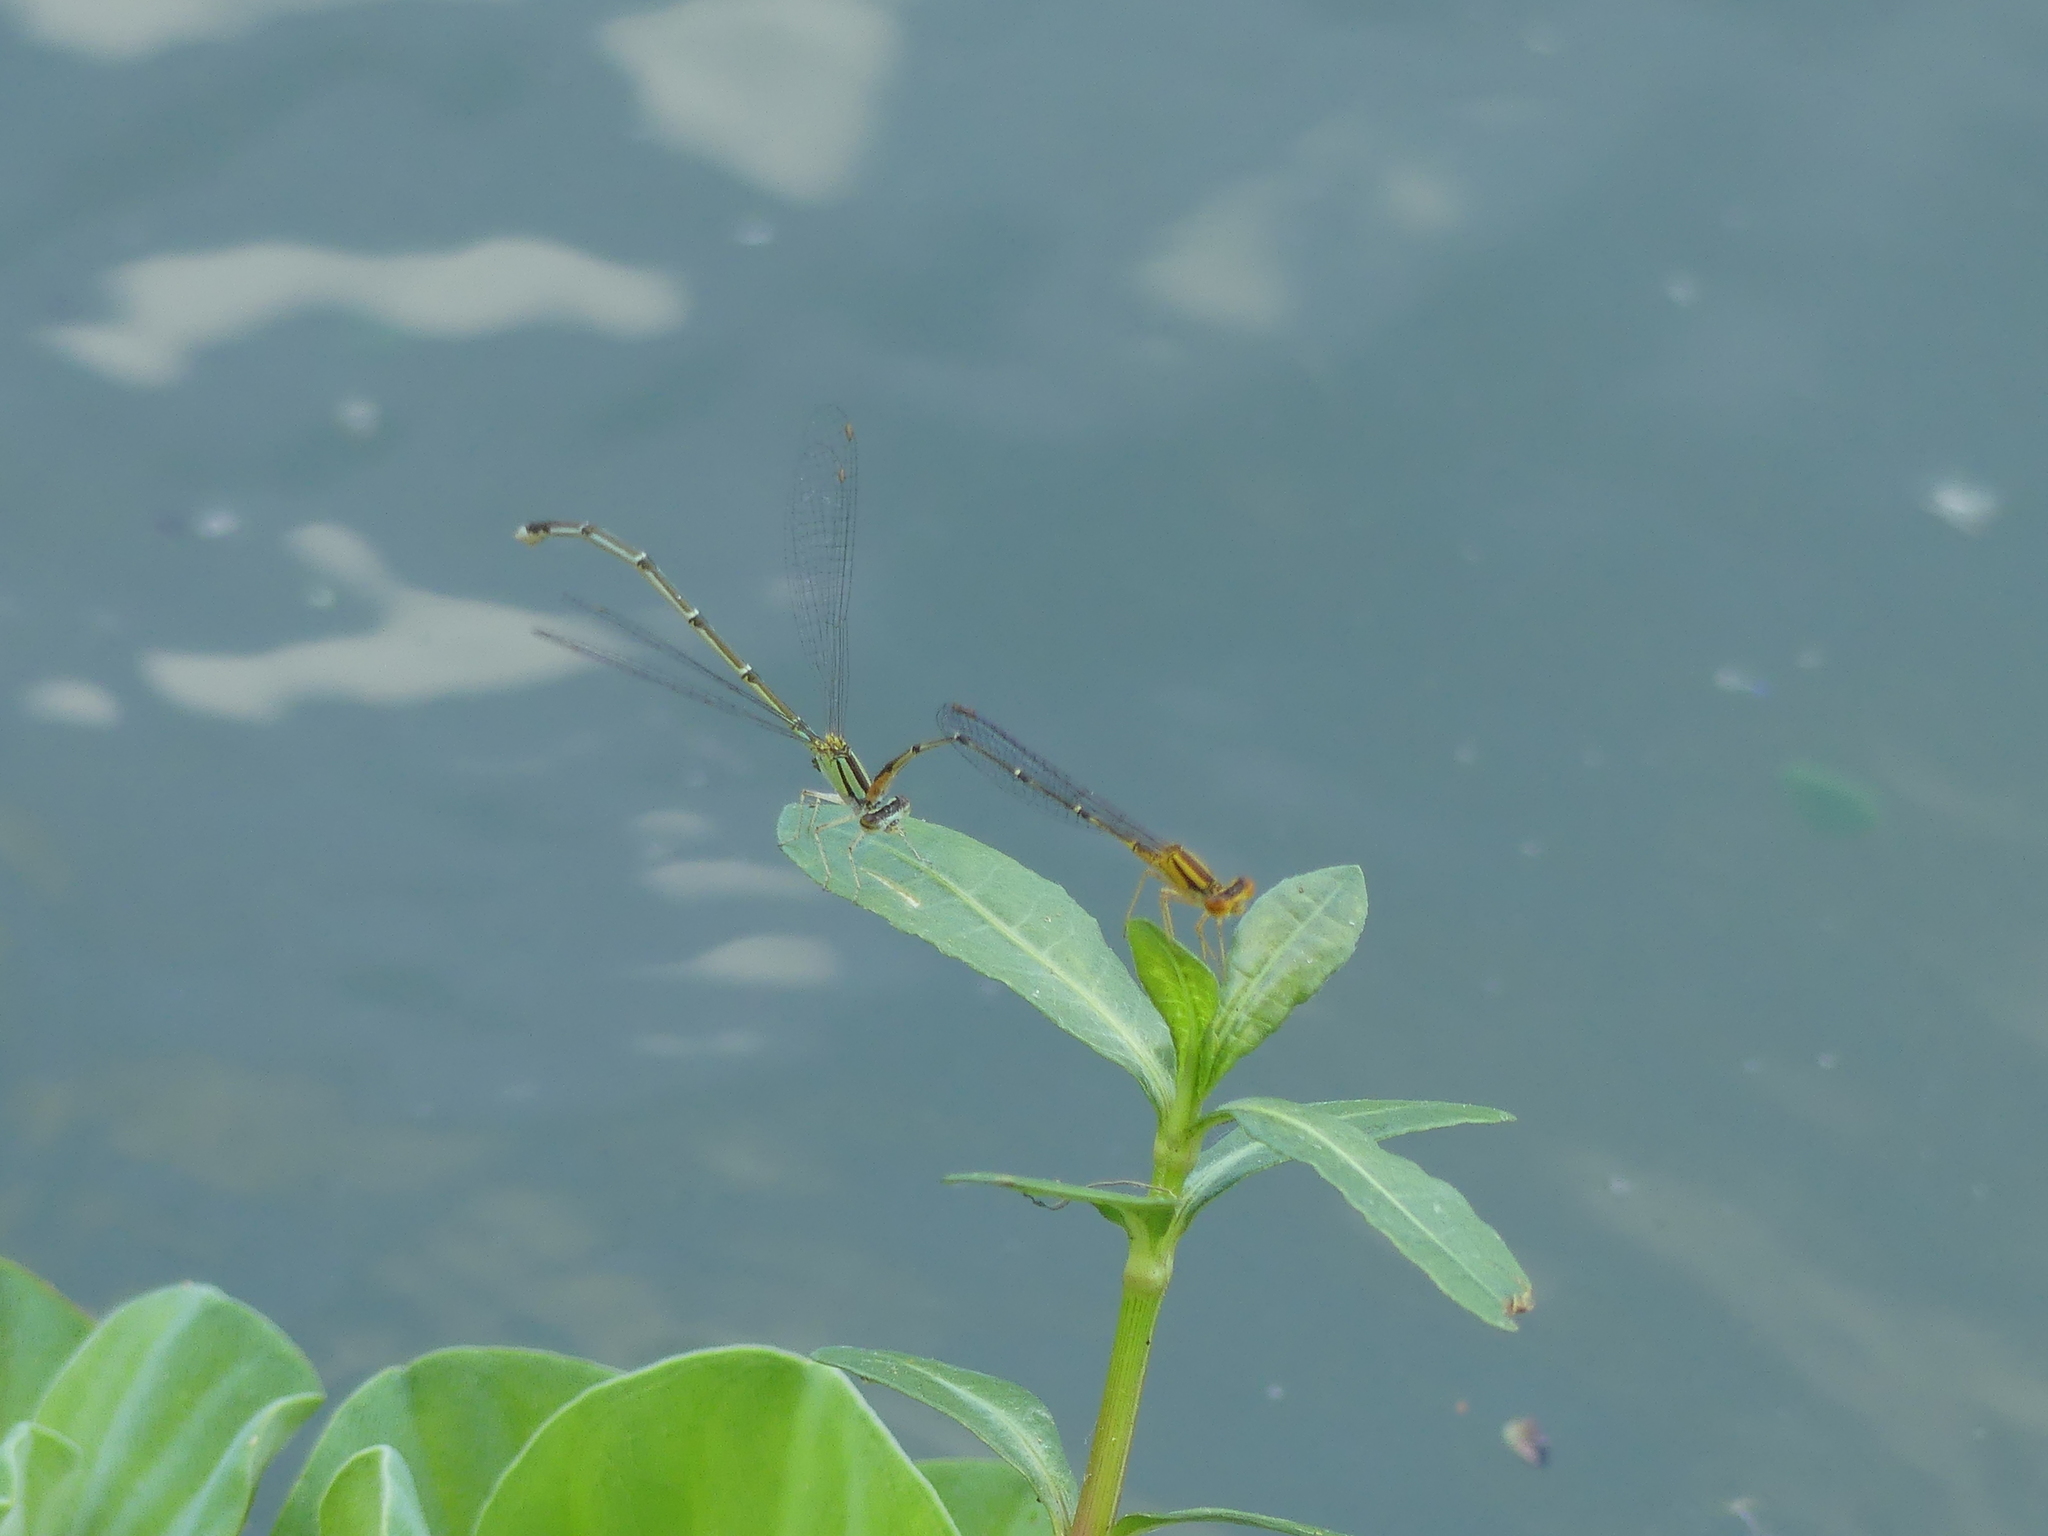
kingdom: Animalia
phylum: Arthropoda
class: Insecta
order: Odonata
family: Coenagrionidae
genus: Enallagma
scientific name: Enallagma signatum
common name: Orange bluet
